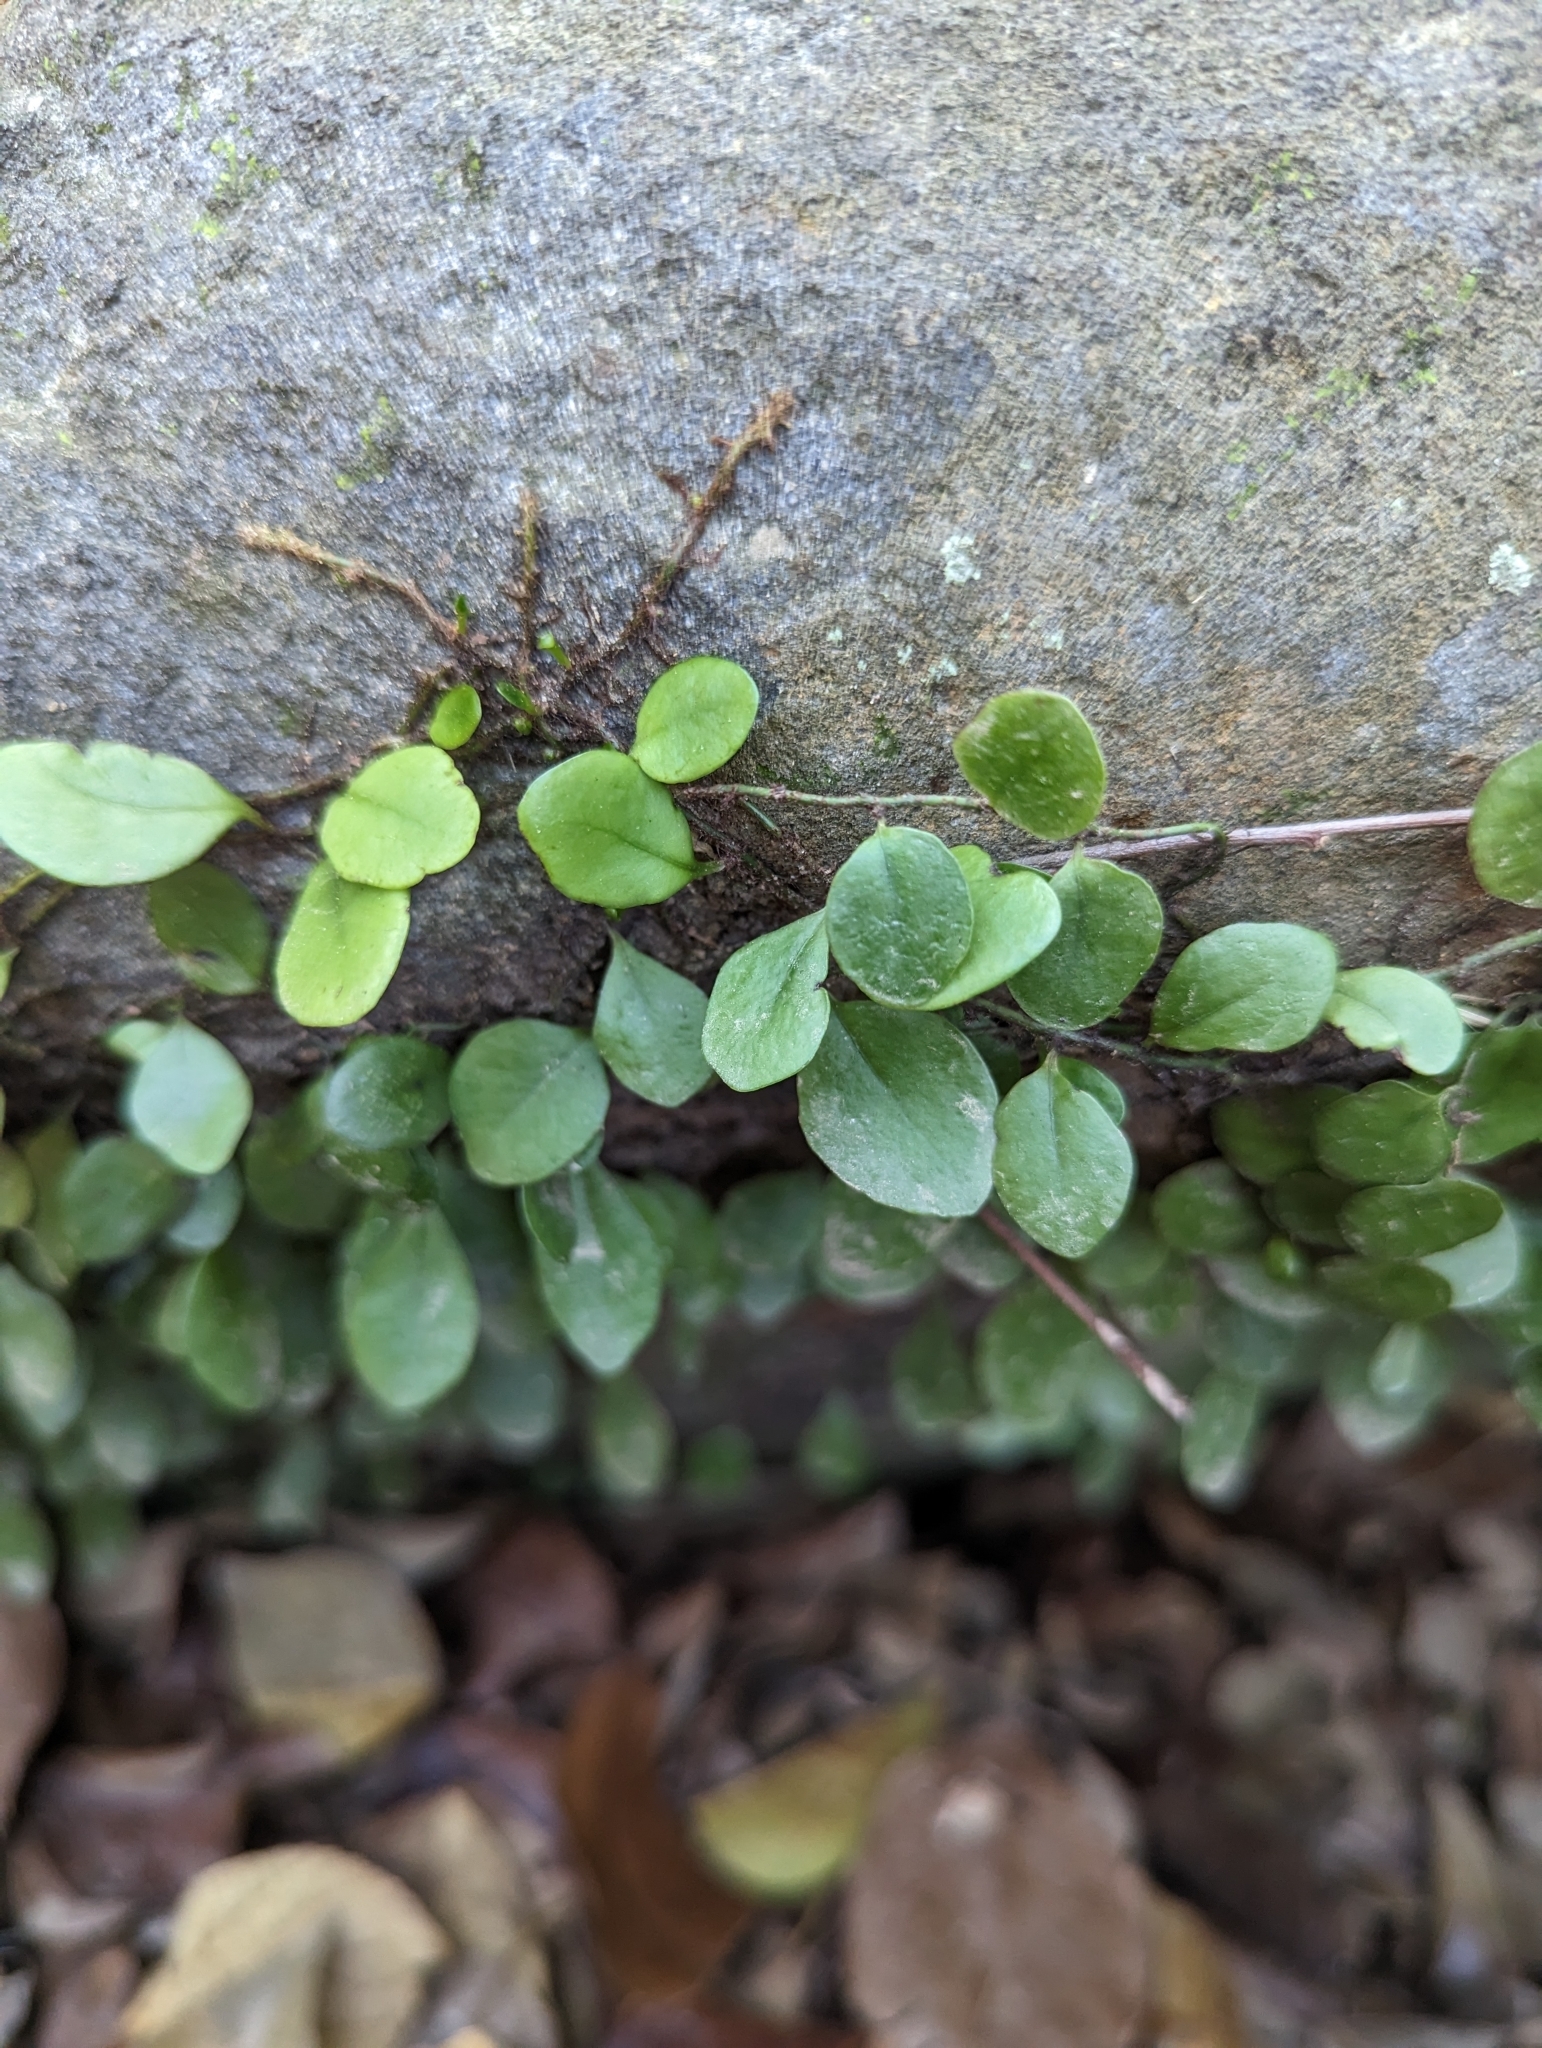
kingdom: Plantae
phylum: Tracheophyta
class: Polypodiopsida
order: Polypodiales
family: Polypodiaceae
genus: Lepisorus
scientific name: Lepisorus microphyllus
